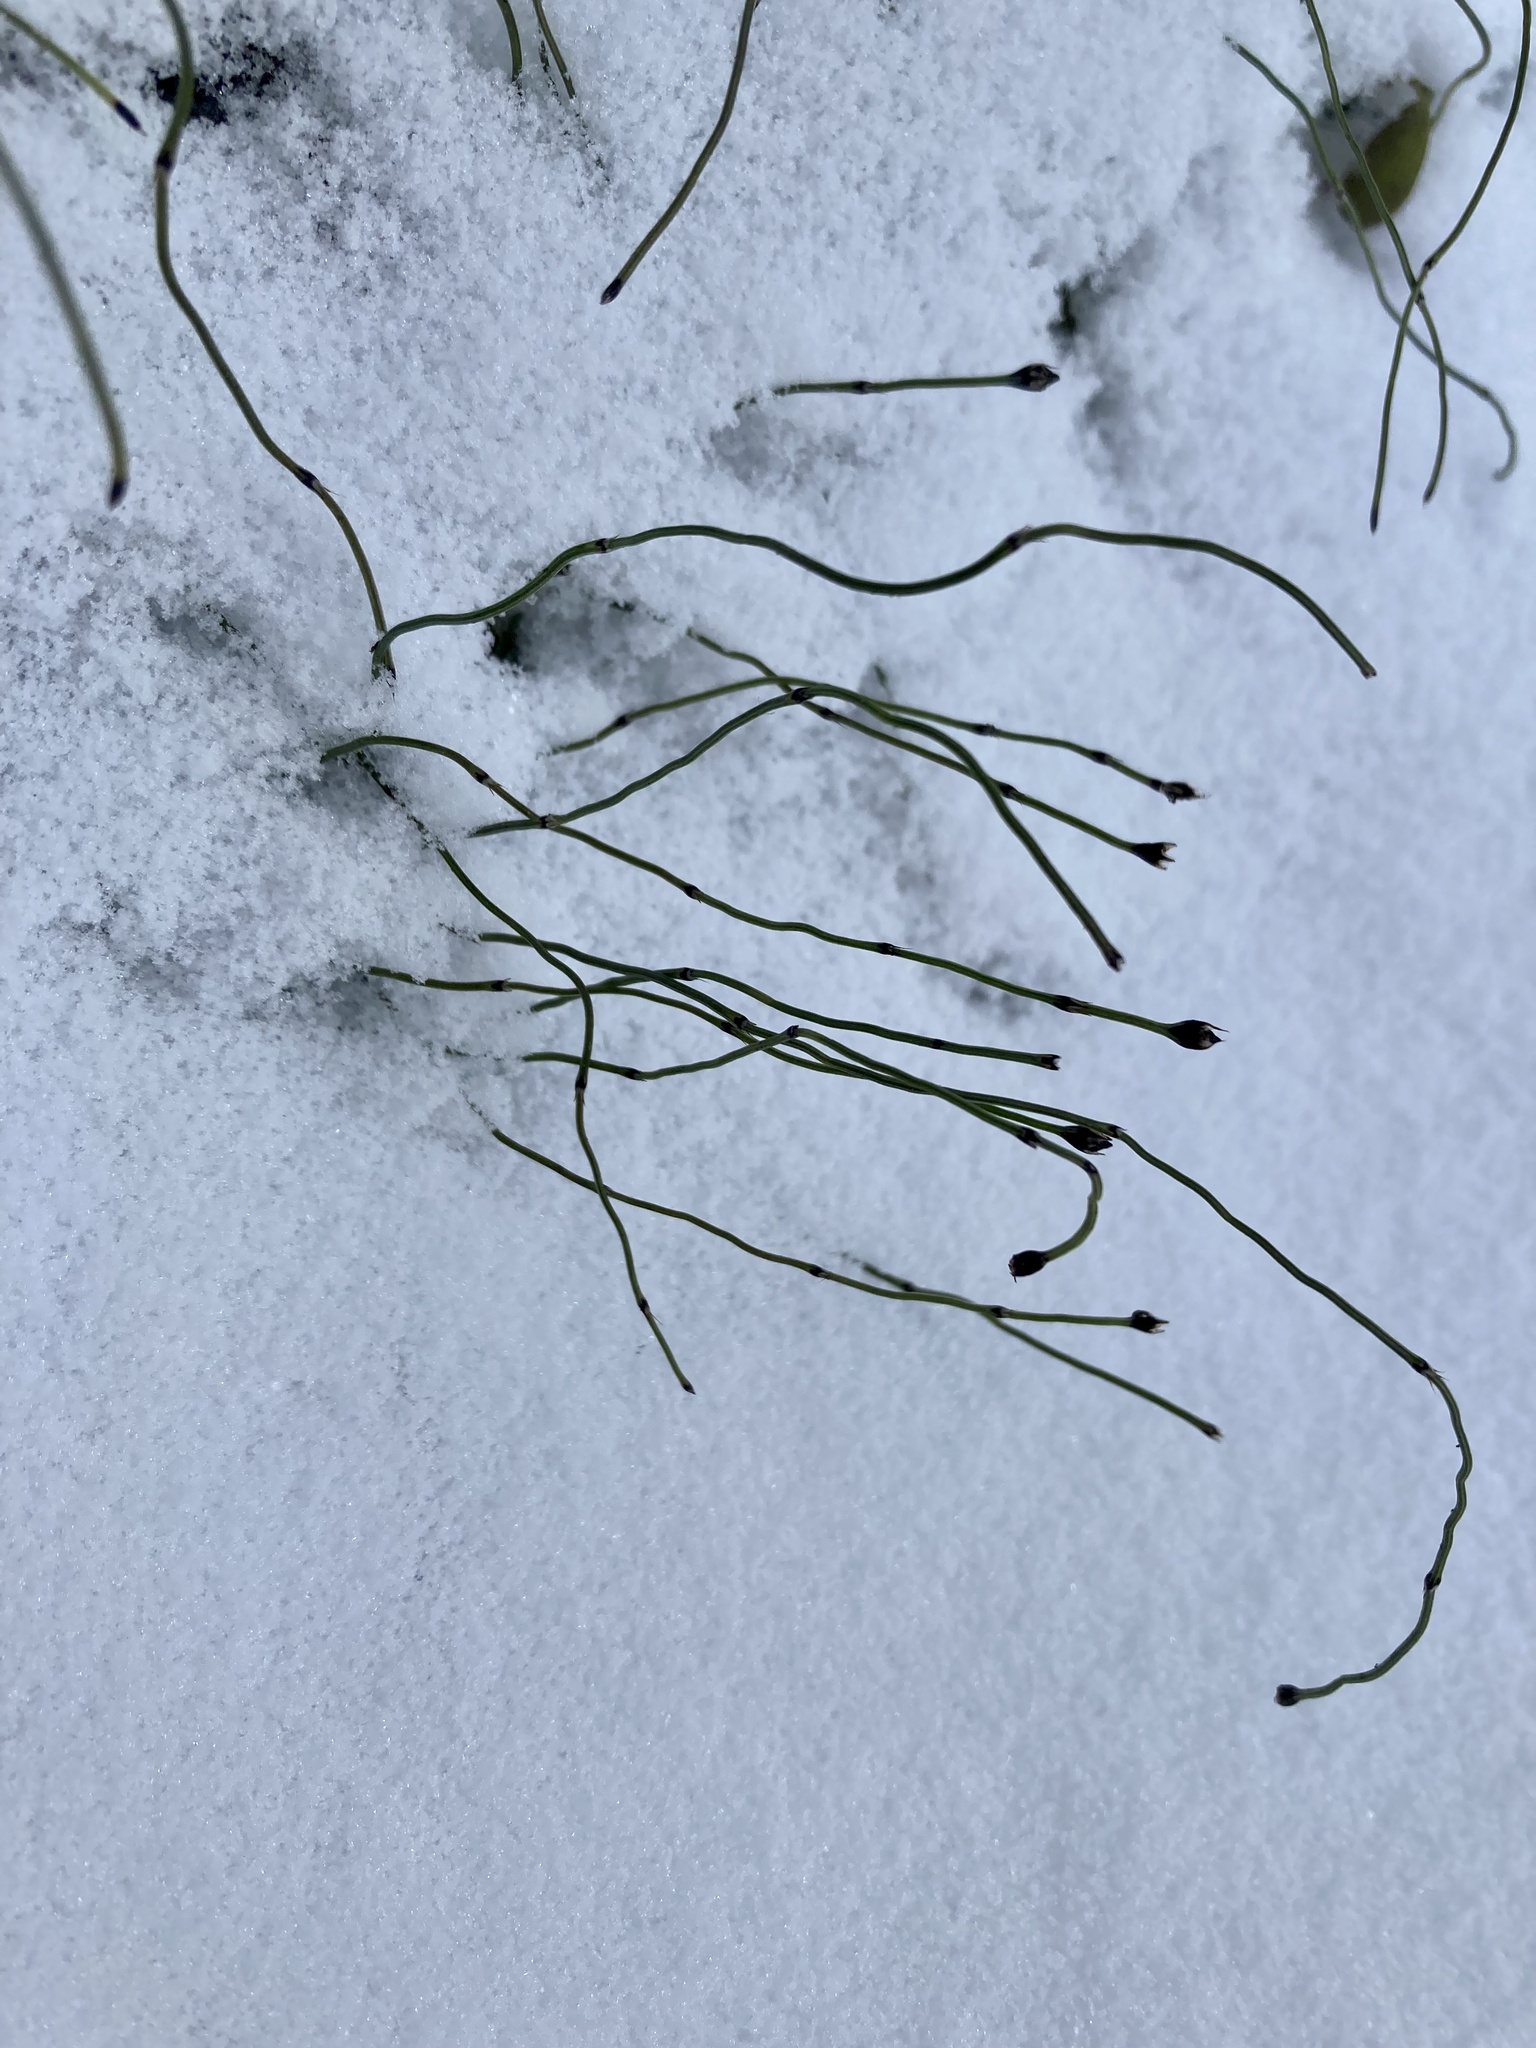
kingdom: Plantae
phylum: Tracheophyta
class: Polypodiopsida
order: Equisetales
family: Equisetaceae
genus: Equisetum
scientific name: Equisetum scirpoides
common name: Delicate horsetail
